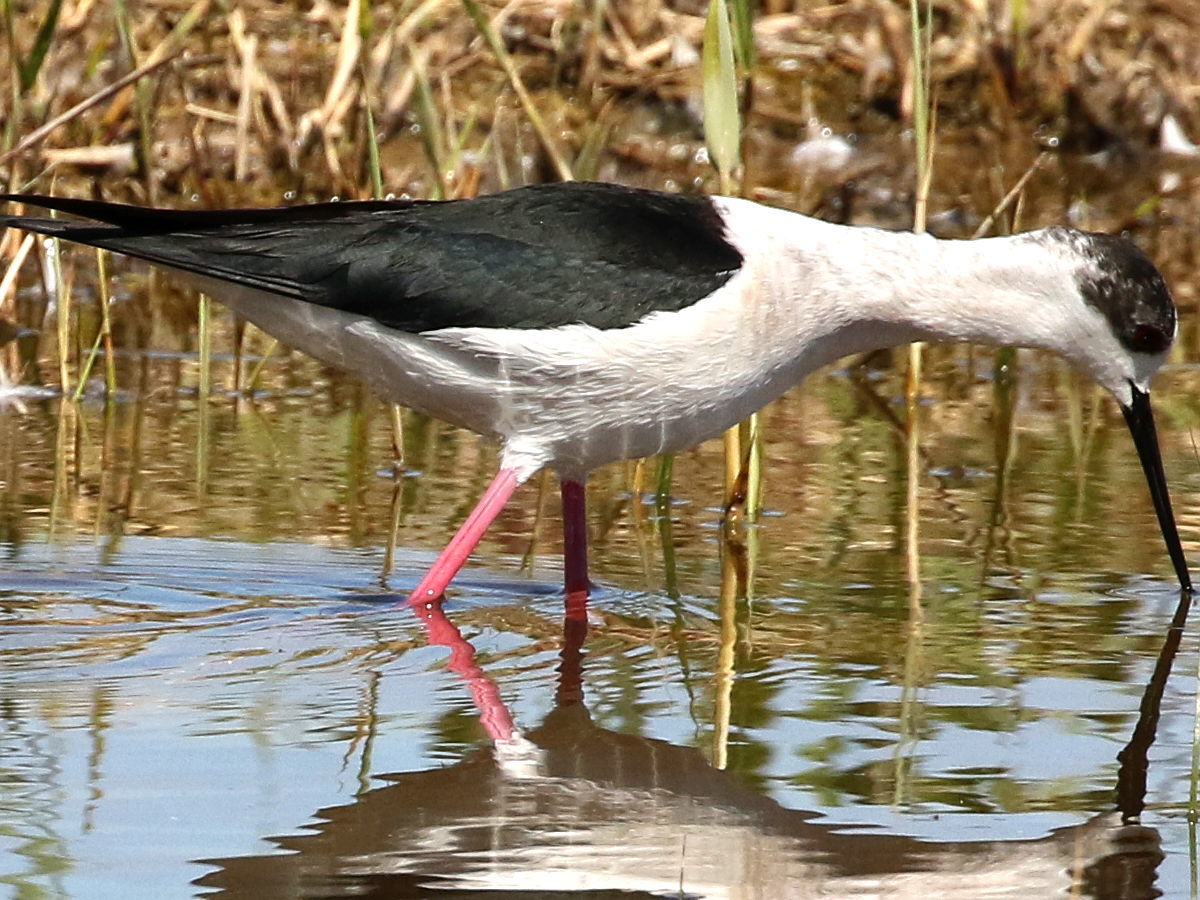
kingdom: Animalia
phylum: Chordata
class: Aves
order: Charadriiformes
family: Recurvirostridae
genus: Himantopus
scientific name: Himantopus himantopus
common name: Black-winged stilt
